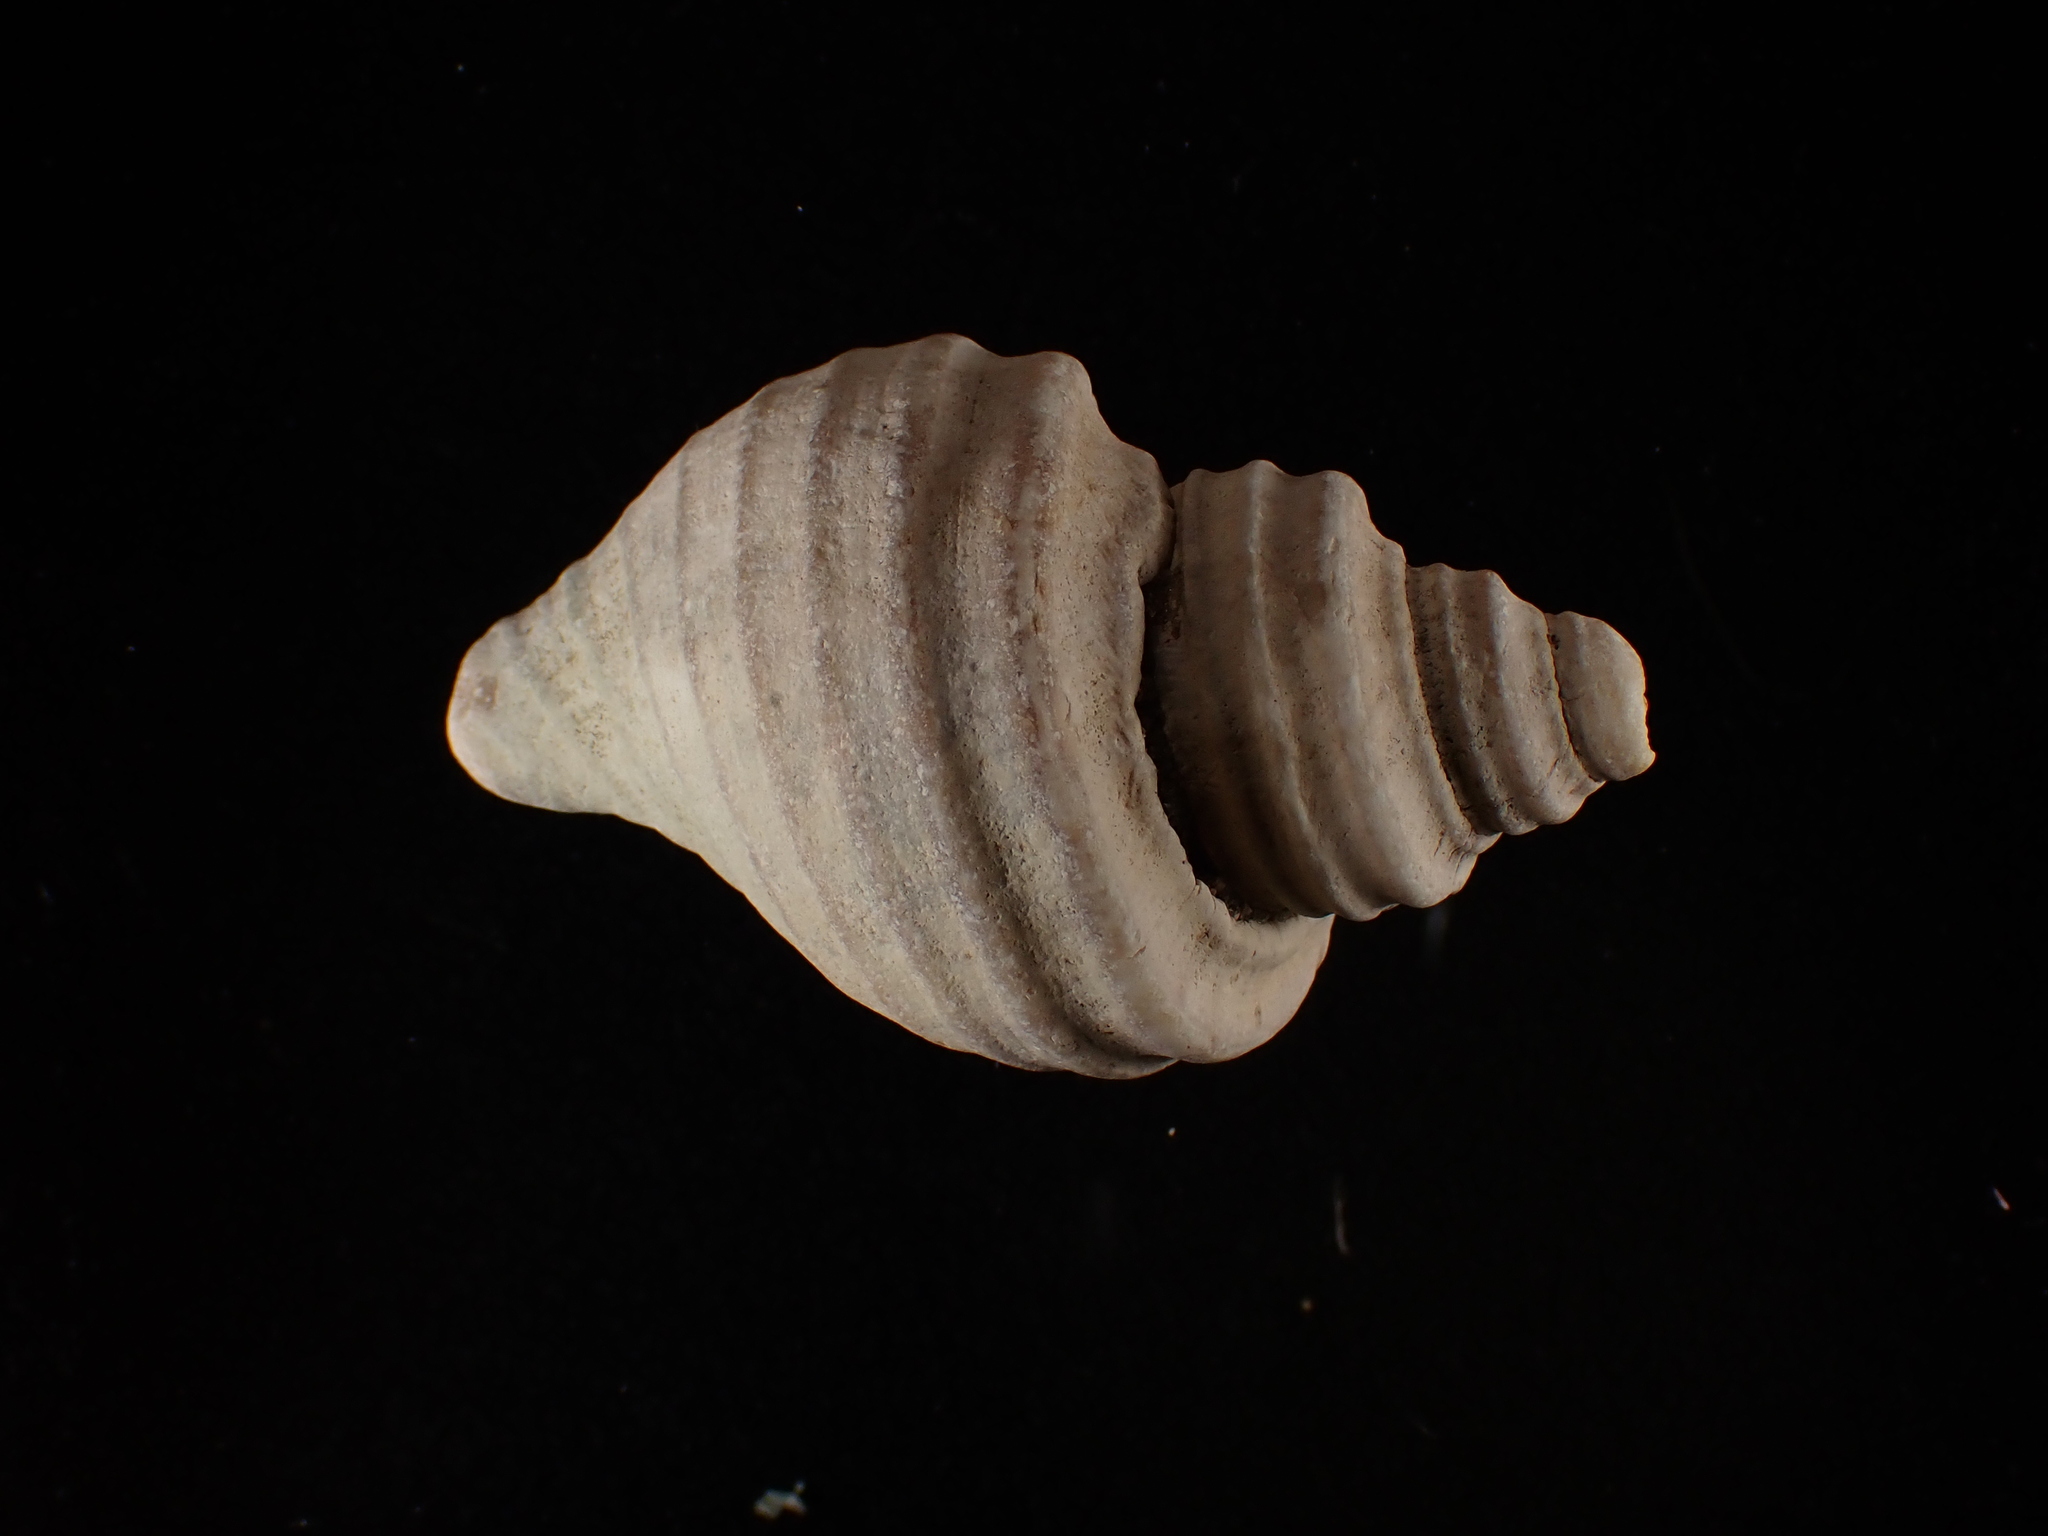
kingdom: Animalia
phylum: Mollusca
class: Gastropoda
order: Neogastropoda
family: Buccinidae
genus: Neptunea
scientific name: Neptunea decemcostata
